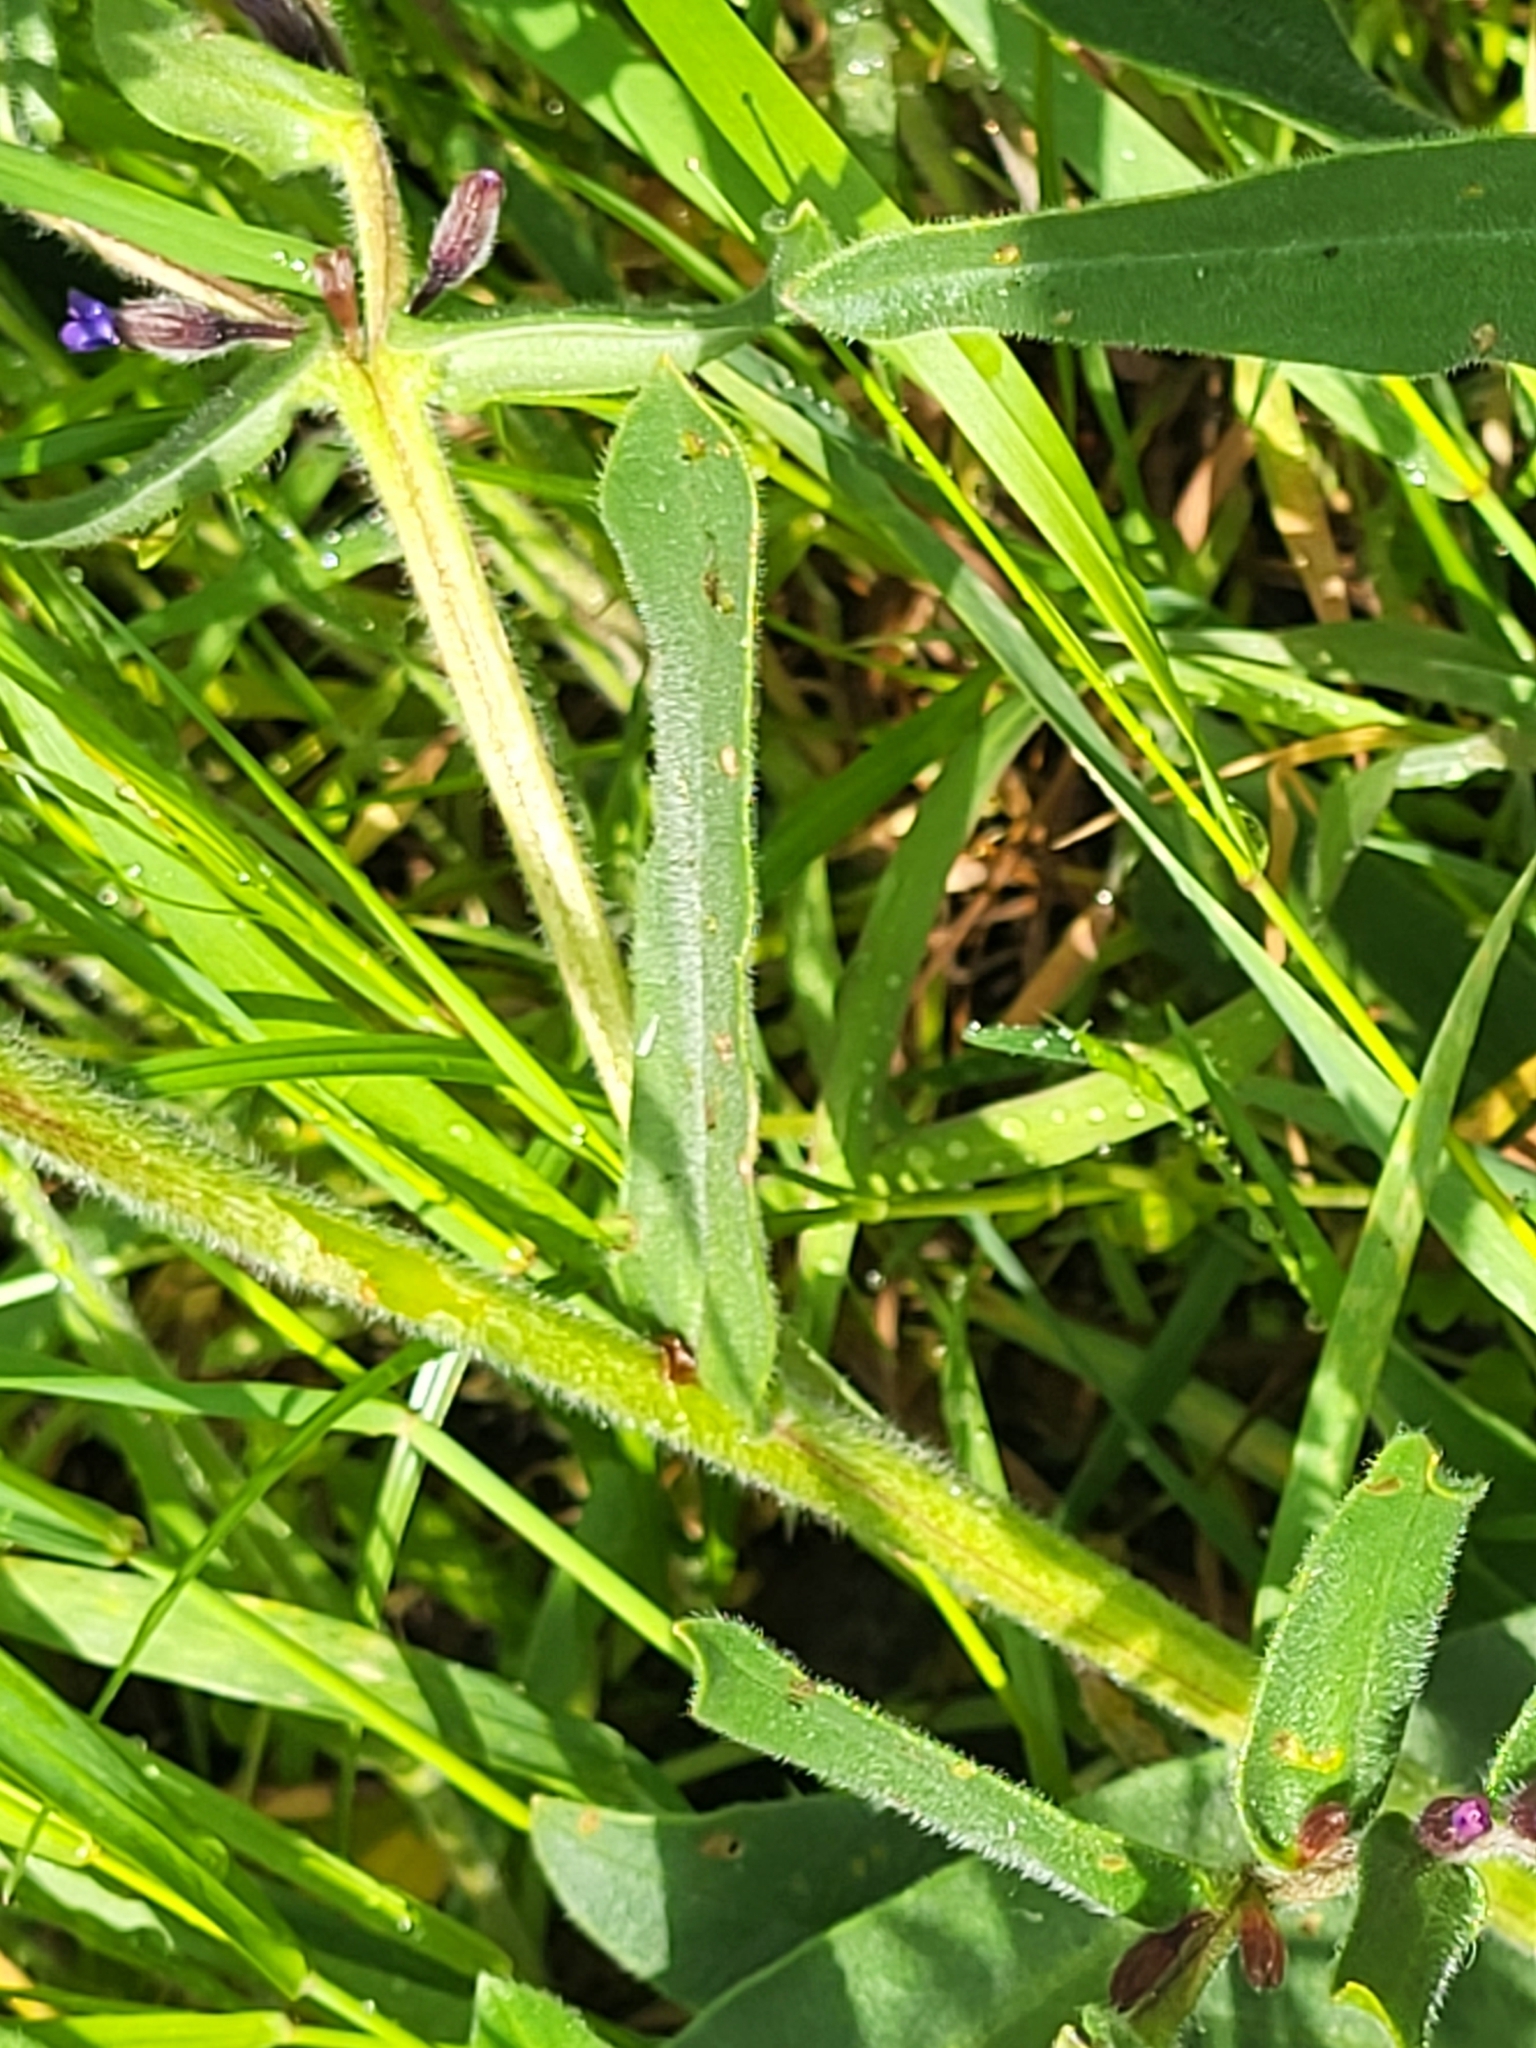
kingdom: Plantae
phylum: Tracheophyta
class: Magnoliopsida
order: Boraginales
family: Boraginaceae
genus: Anchusa
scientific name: Anchusa officinalis
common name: Alkanet
